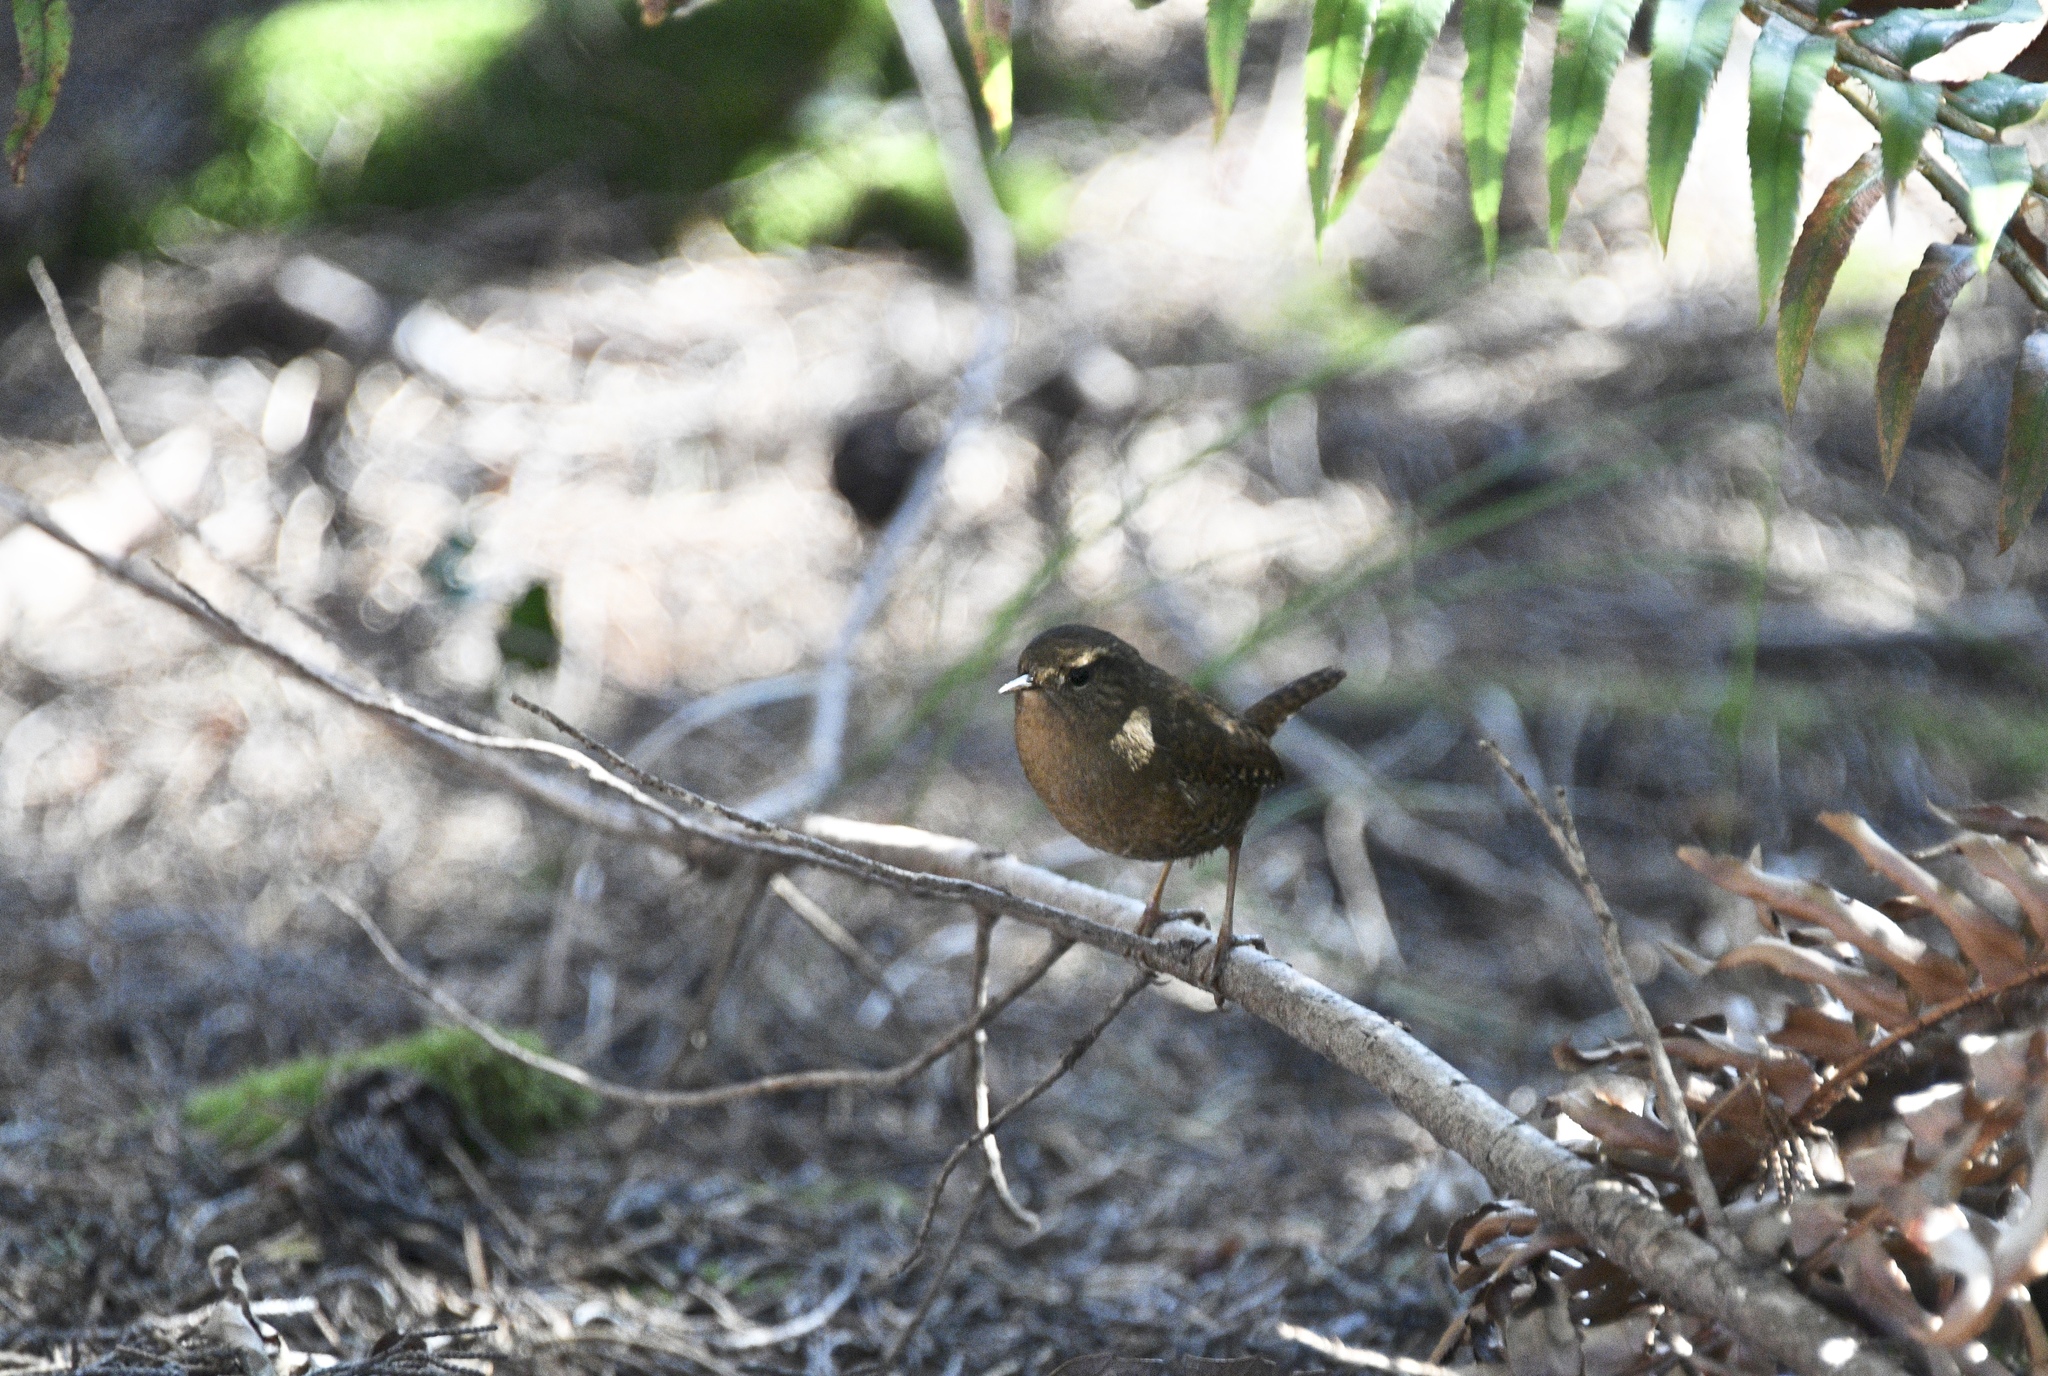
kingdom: Animalia
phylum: Chordata
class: Aves
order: Passeriformes
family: Troglodytidae
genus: Troglodytes
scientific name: Troglodytes pacificus
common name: Pacific wren
